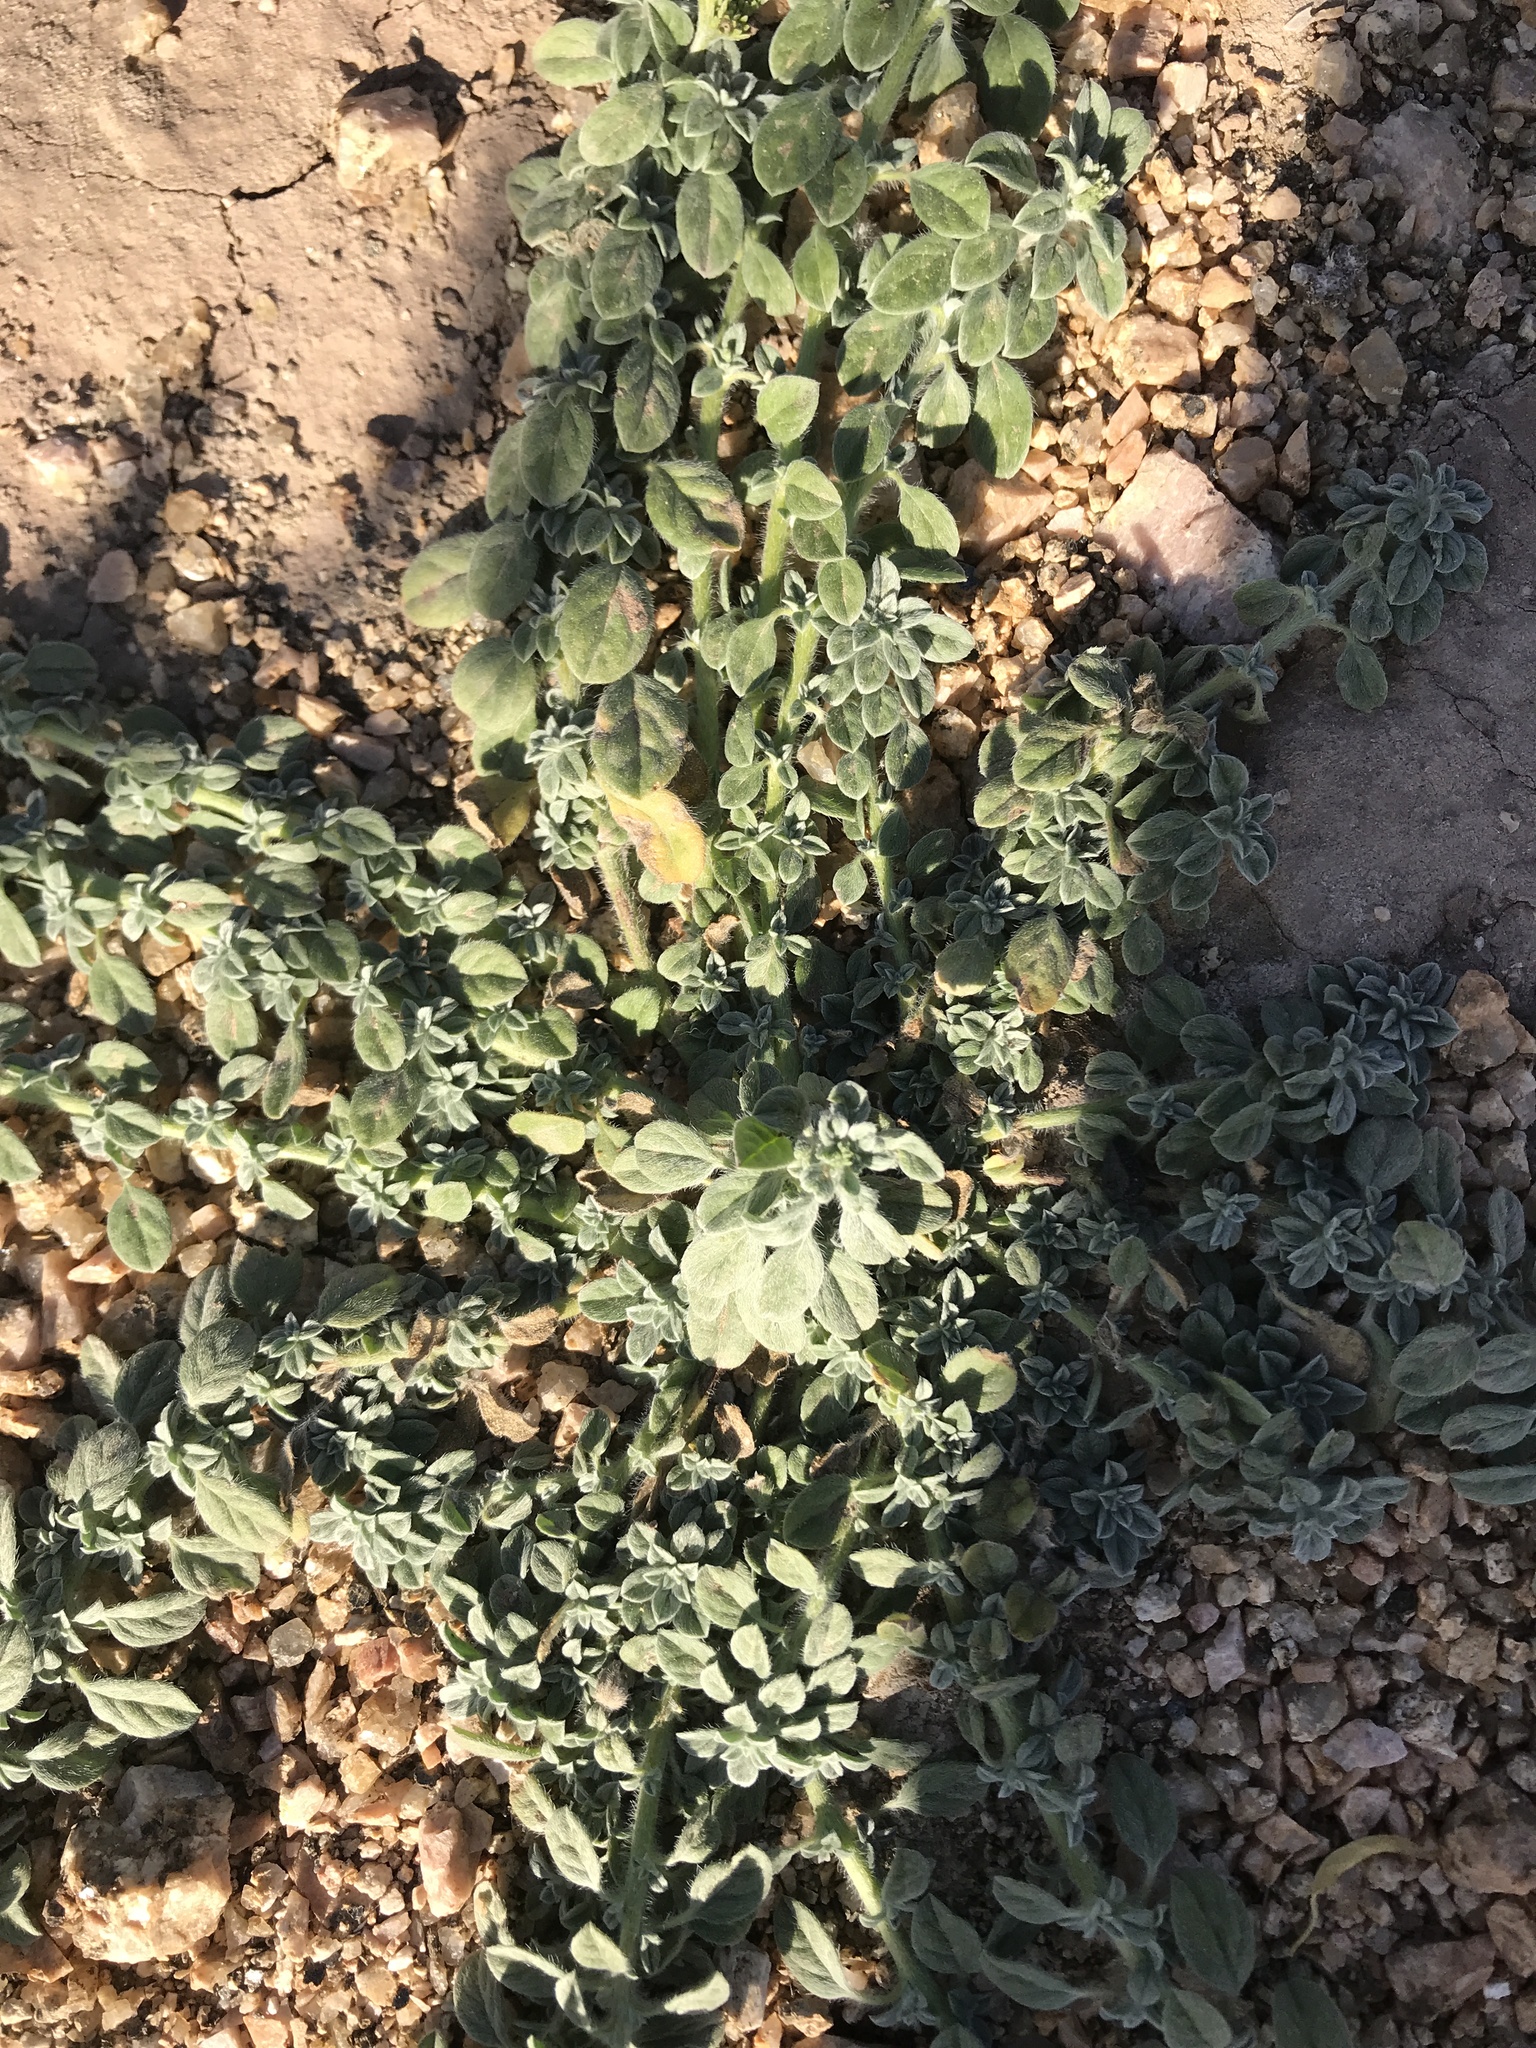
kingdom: Plantae
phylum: Tracheophyta
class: Magnoliopsida
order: Boraginales
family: Heliotropiaceae
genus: Euploca
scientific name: Euploca procumbens
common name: Fourspike heliotrope
